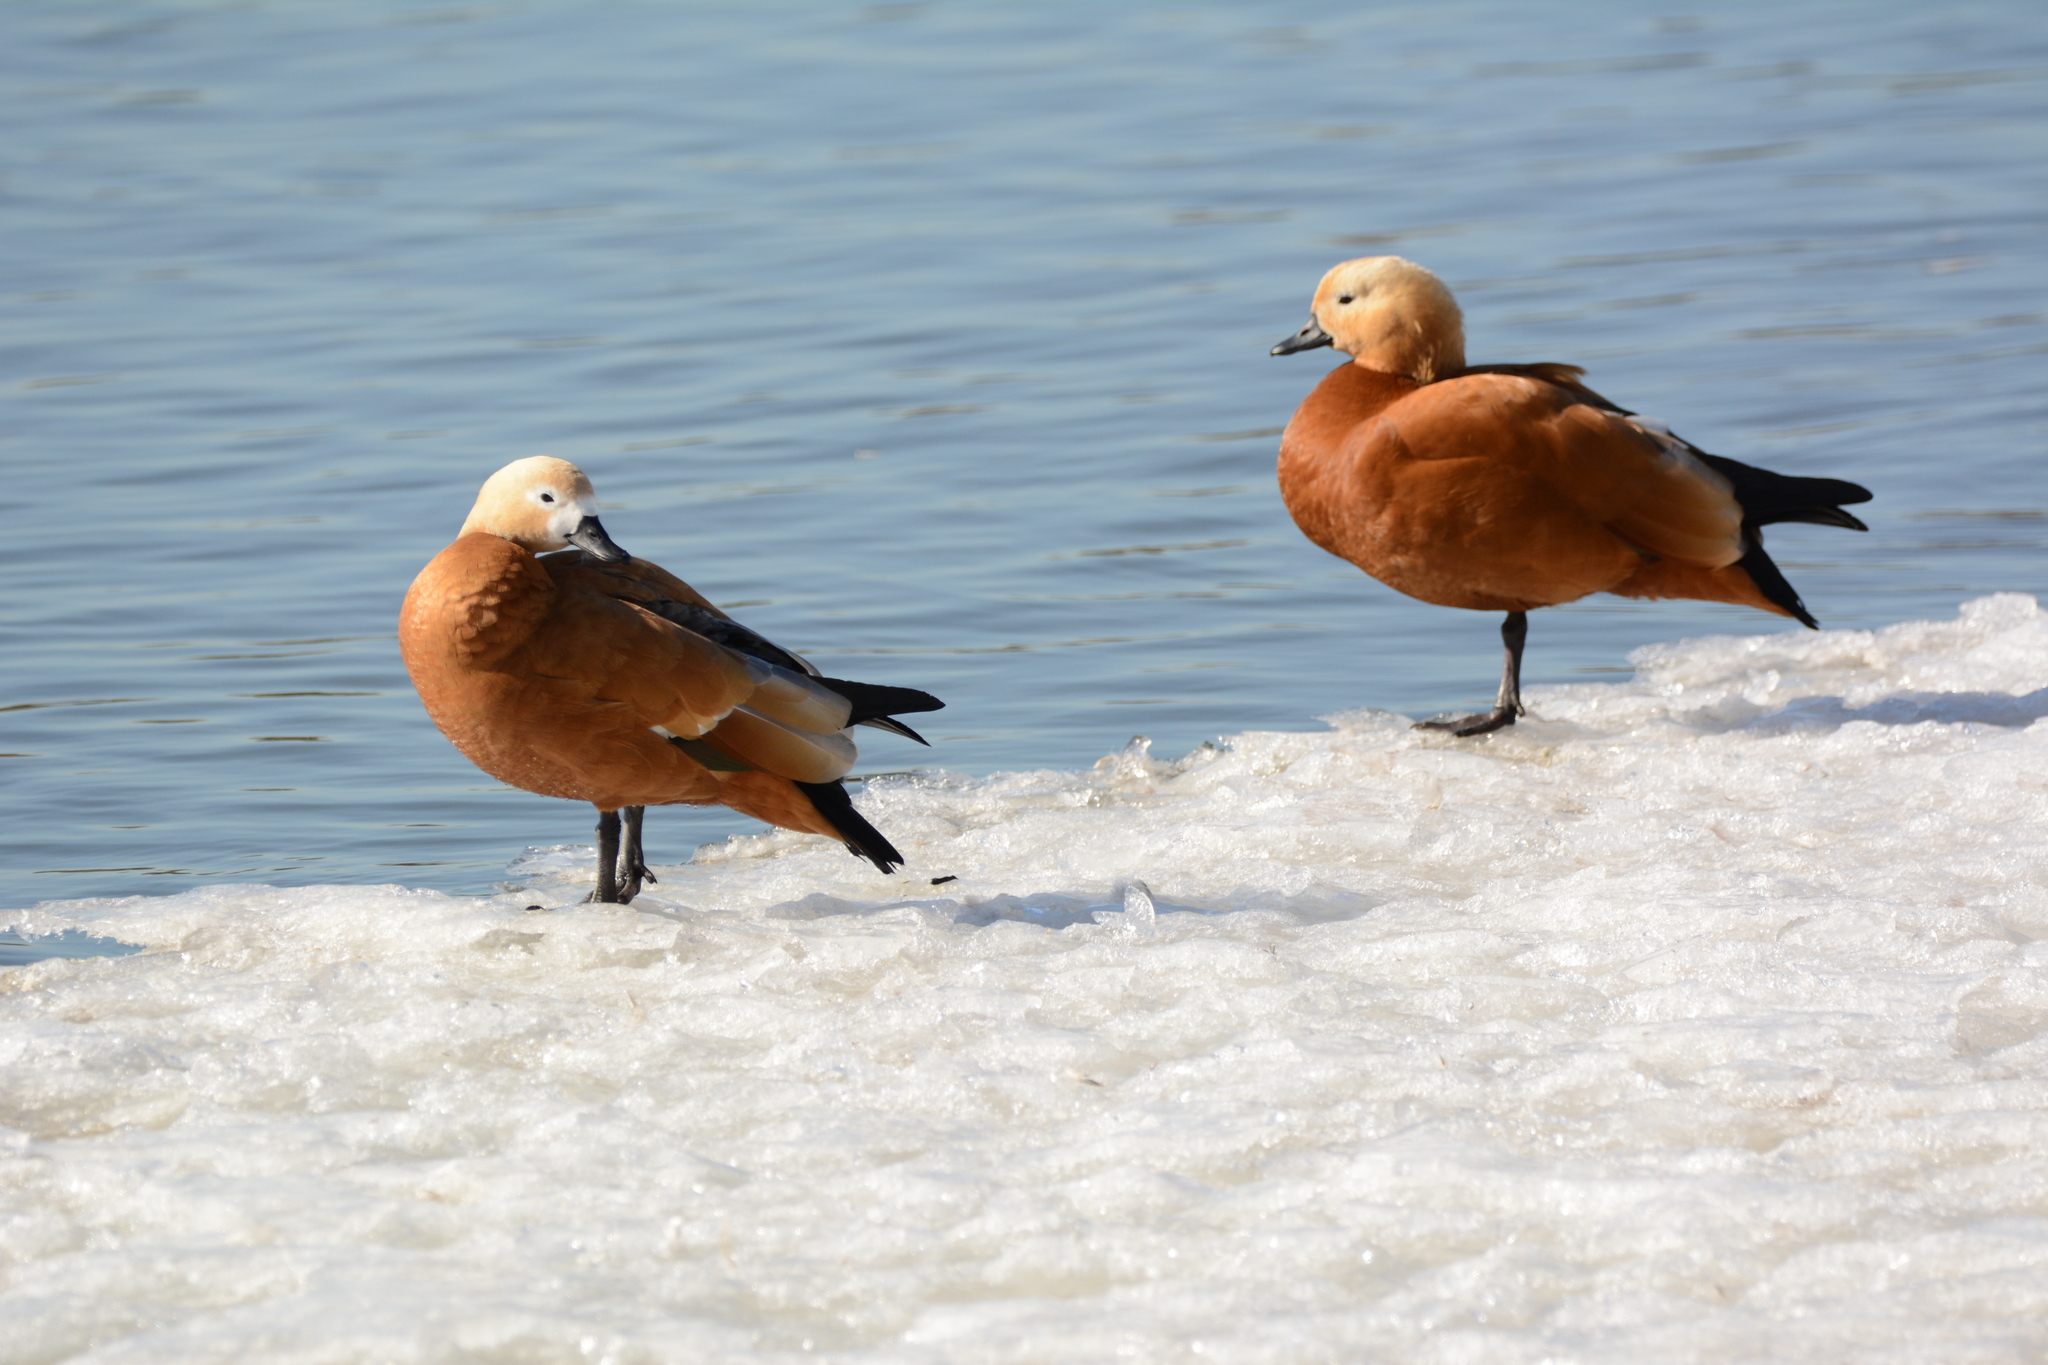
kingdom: Animalia
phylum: Chordata
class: Aves
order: Anseriformes
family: Anatidae
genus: Tadorna
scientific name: Tadorna ferruginea
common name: Ruddy shelduck
